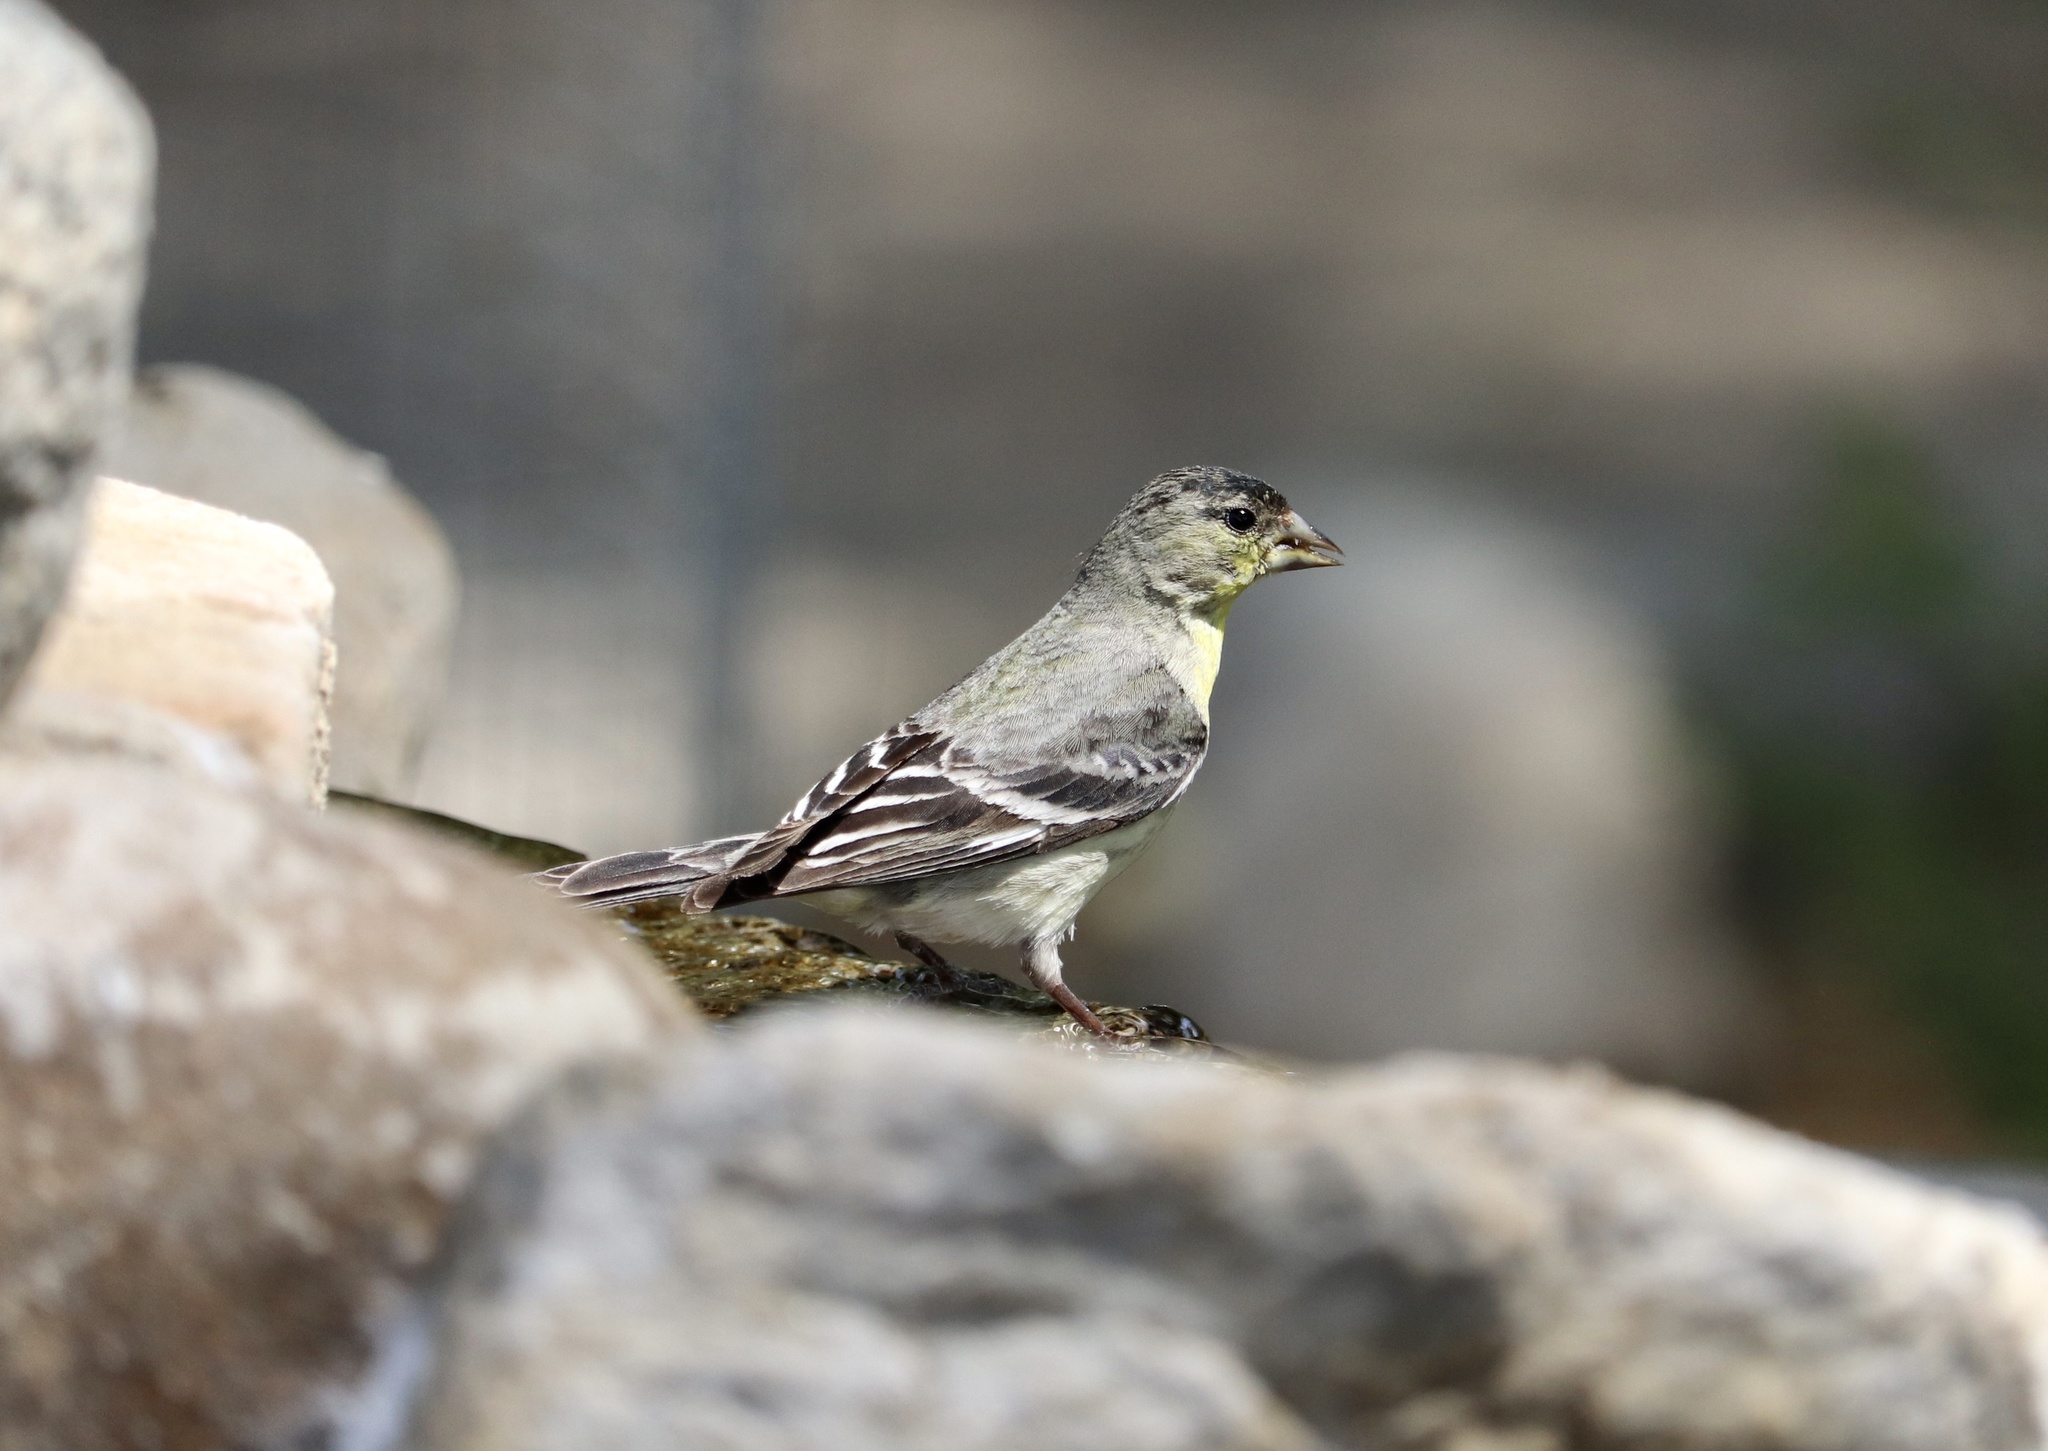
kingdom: Animalia
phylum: Chordata
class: Aves
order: Passeriformes
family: Fringillidae
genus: Spinus
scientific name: Spinus psaltria
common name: Lesser goldfinch
